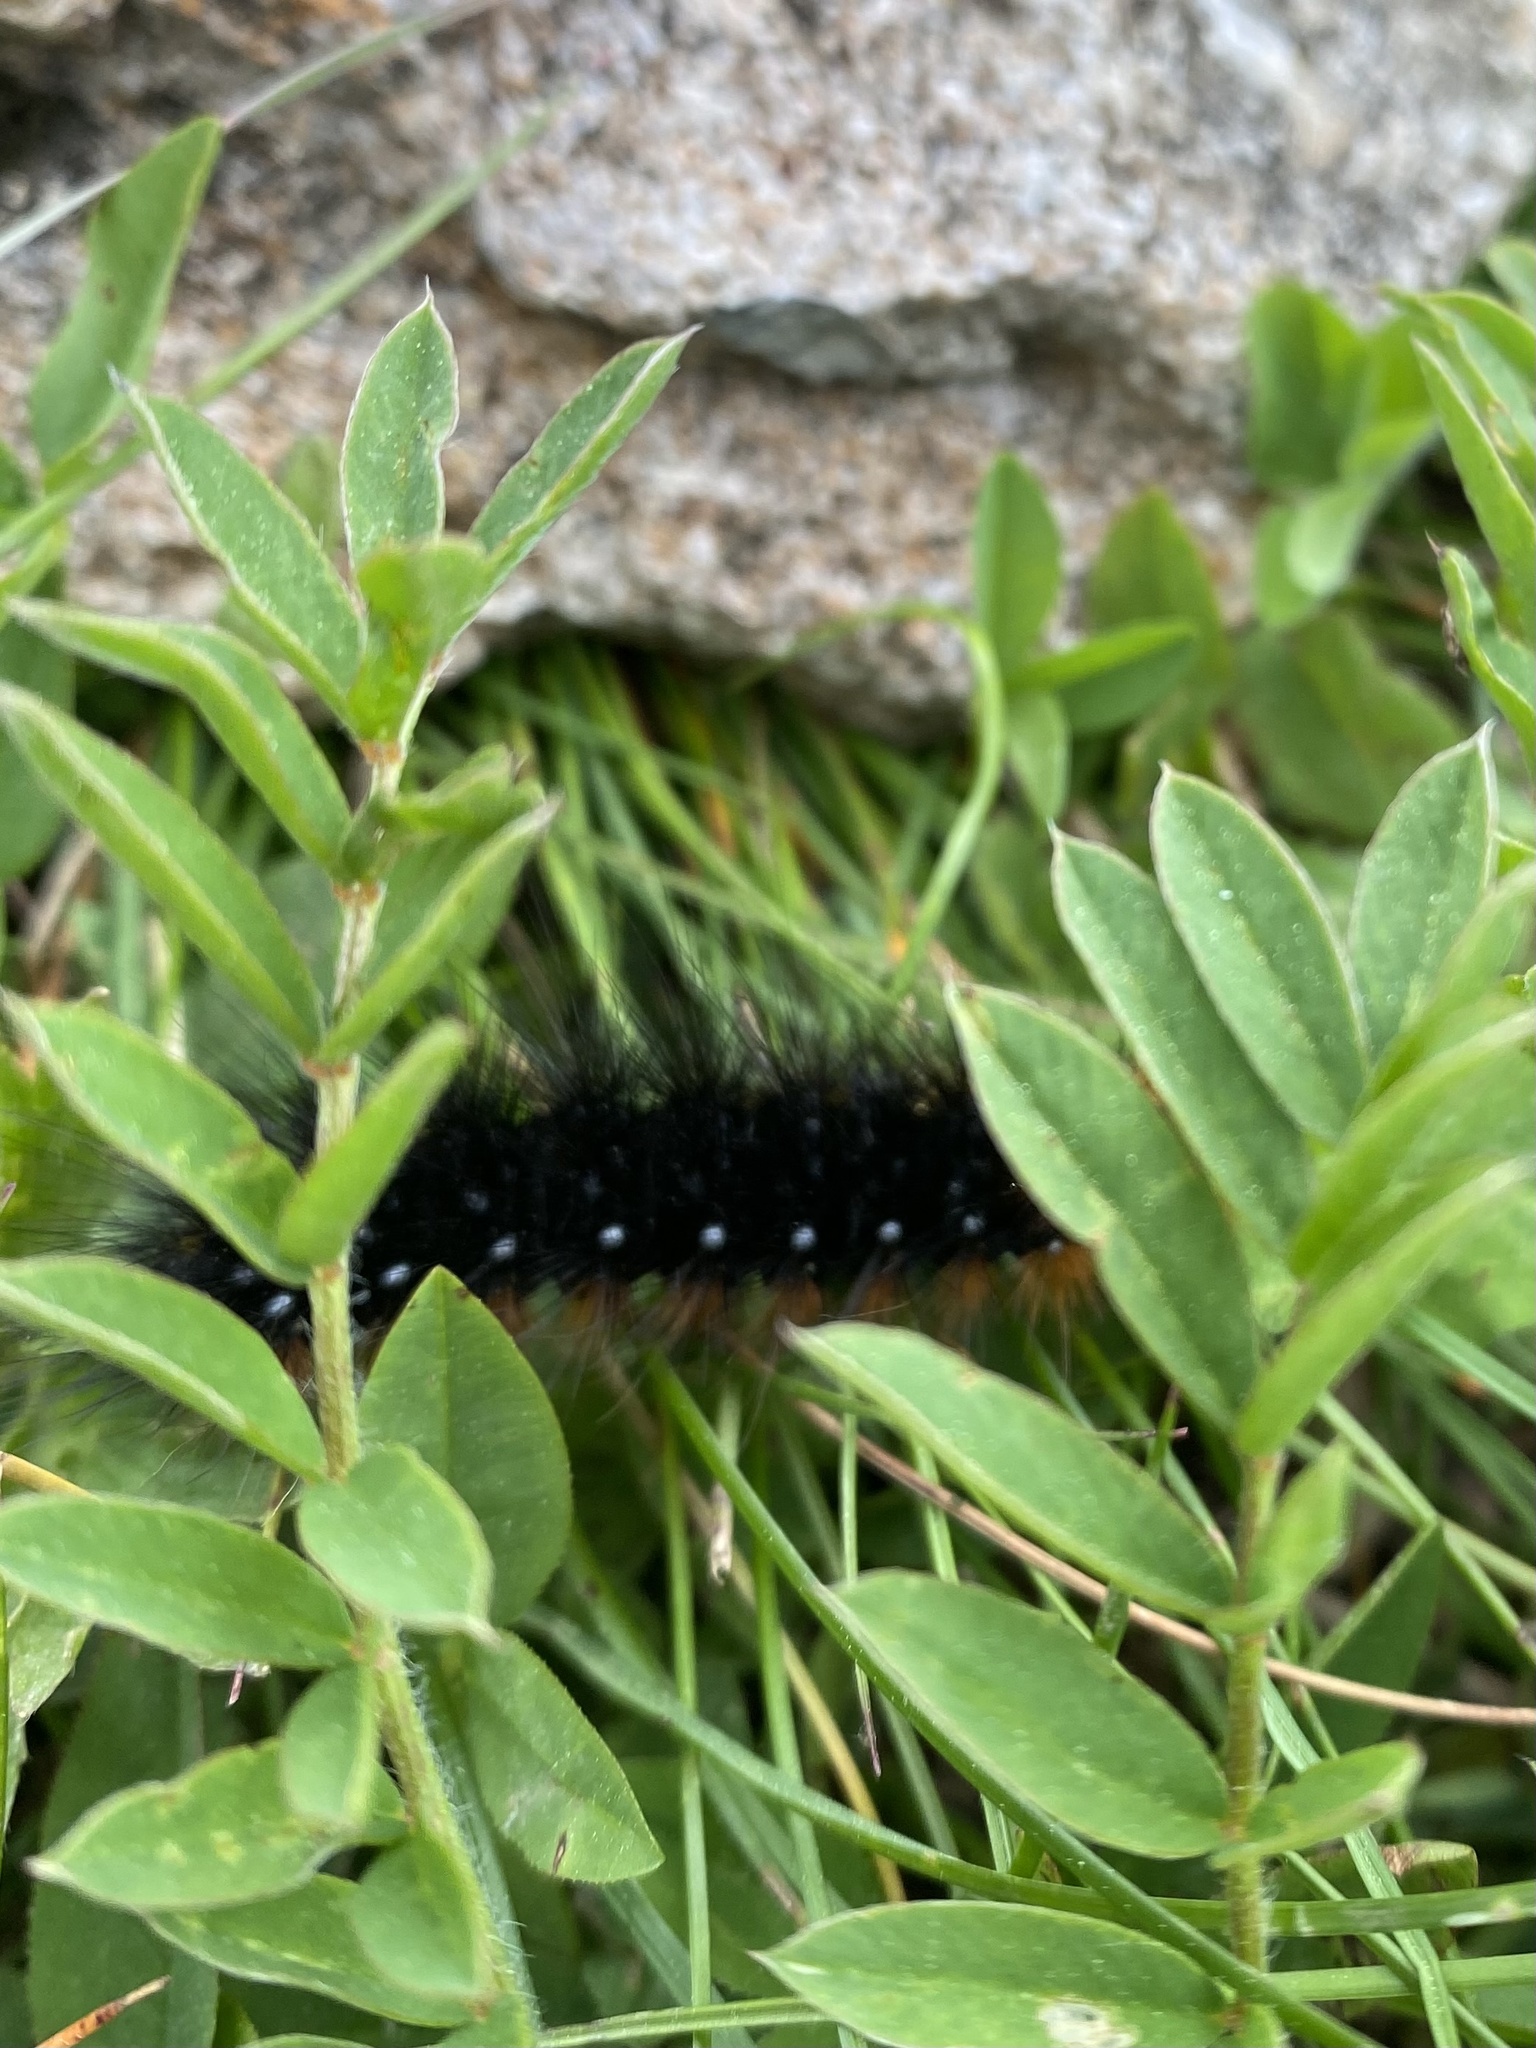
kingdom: Animalia
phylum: Arthropoda
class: Insecta
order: Lepidoptera
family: Erebidae
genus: Arctia
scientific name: Arctia caja
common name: Garden tiger
